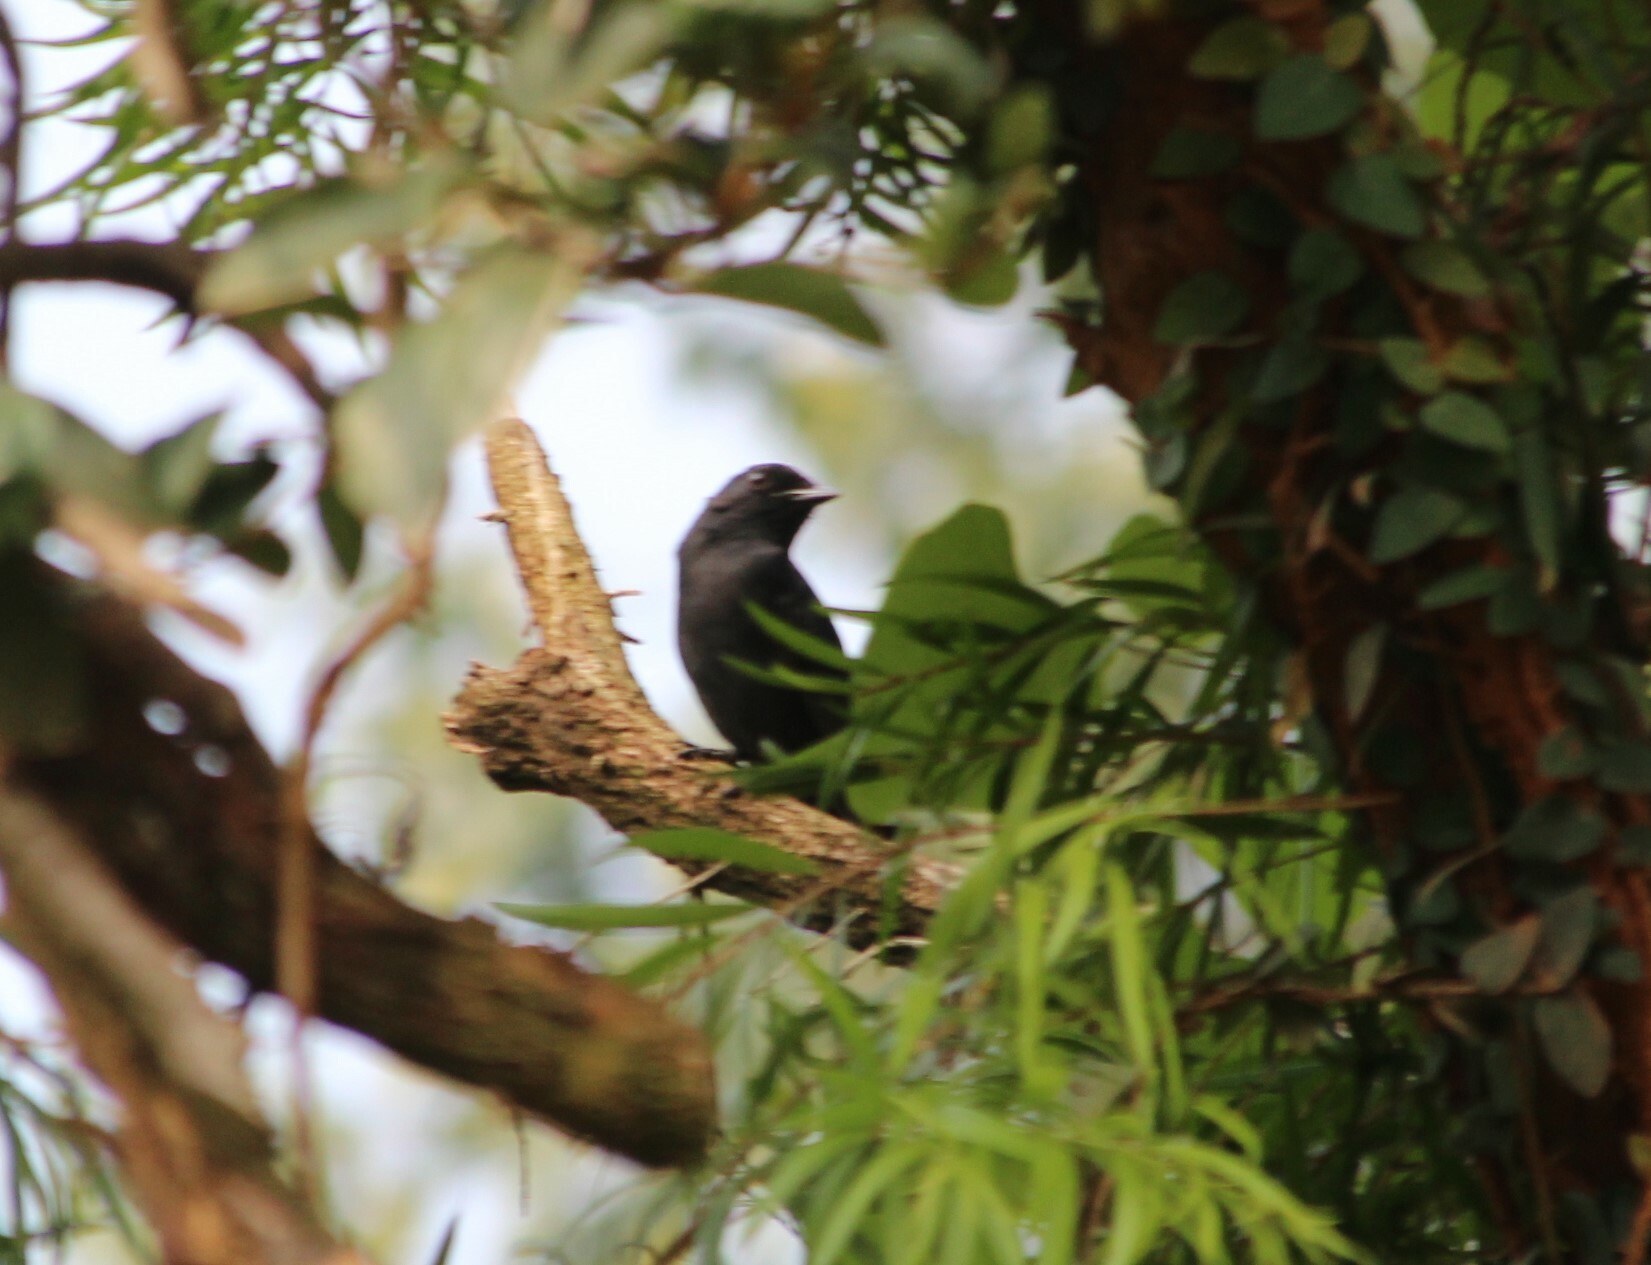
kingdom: Animalia
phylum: Chordata
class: Aves
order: Passeriformes
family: Muscicapidae
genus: Melaenornis
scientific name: Melaenornis edolioides
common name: Northern black flycatcher
